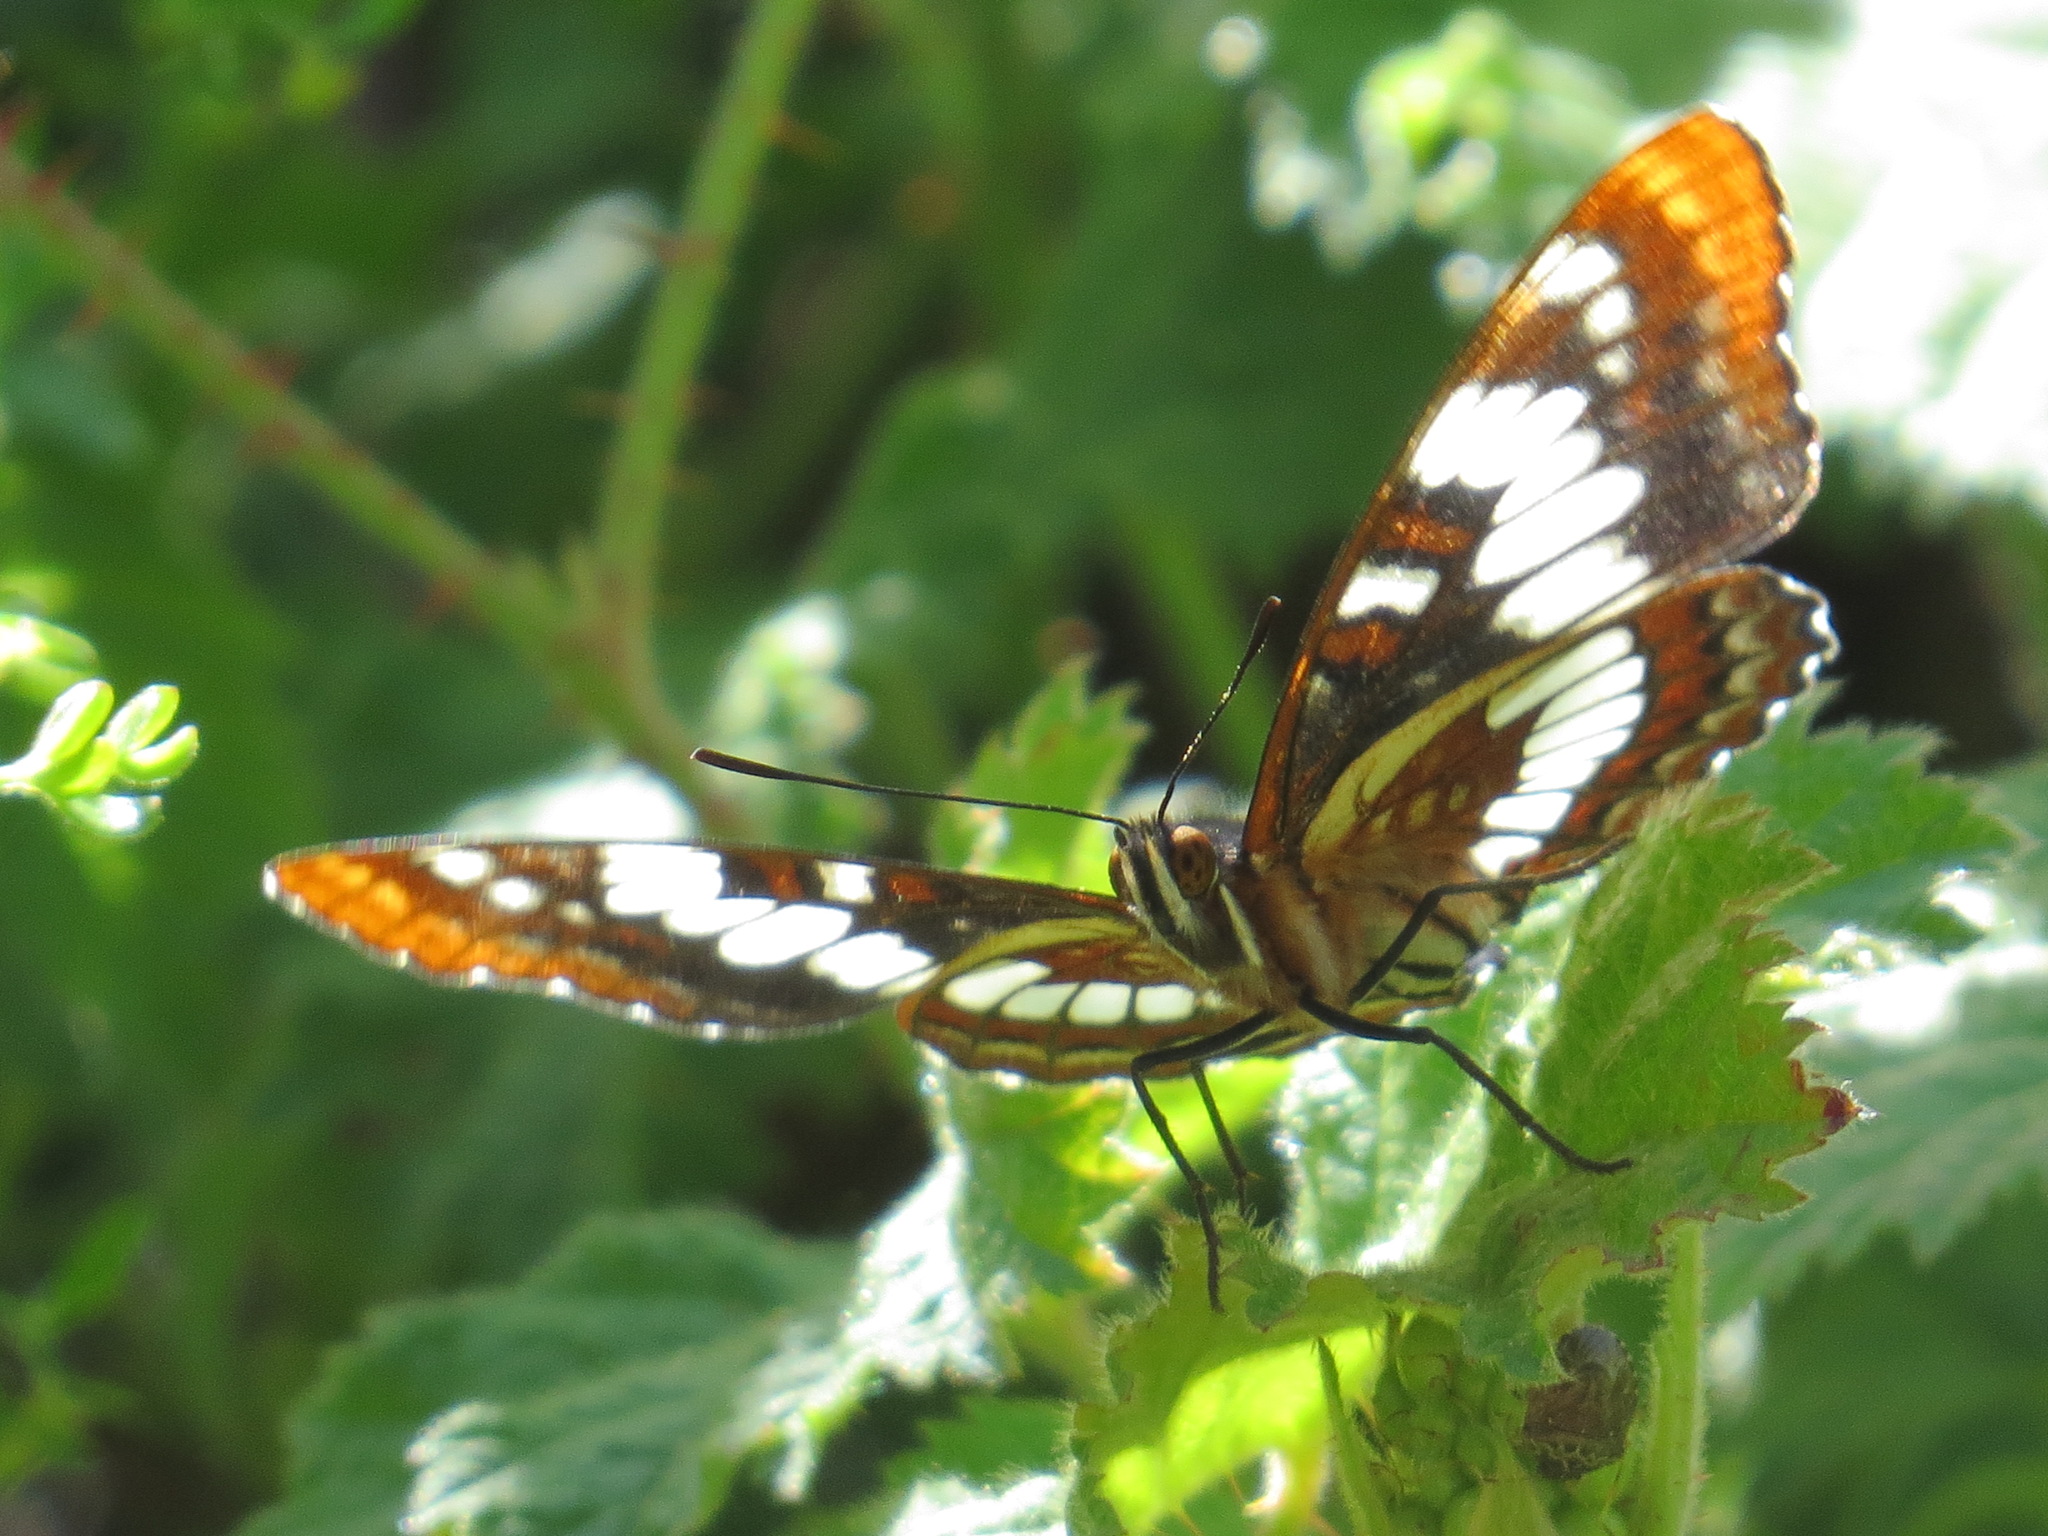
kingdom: Animalia
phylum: Arthropoda
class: Insecta
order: Lepidoptera
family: Nymphalidae
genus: Limenitis
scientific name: Limenitis lorquini
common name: Lorquin's admiral
